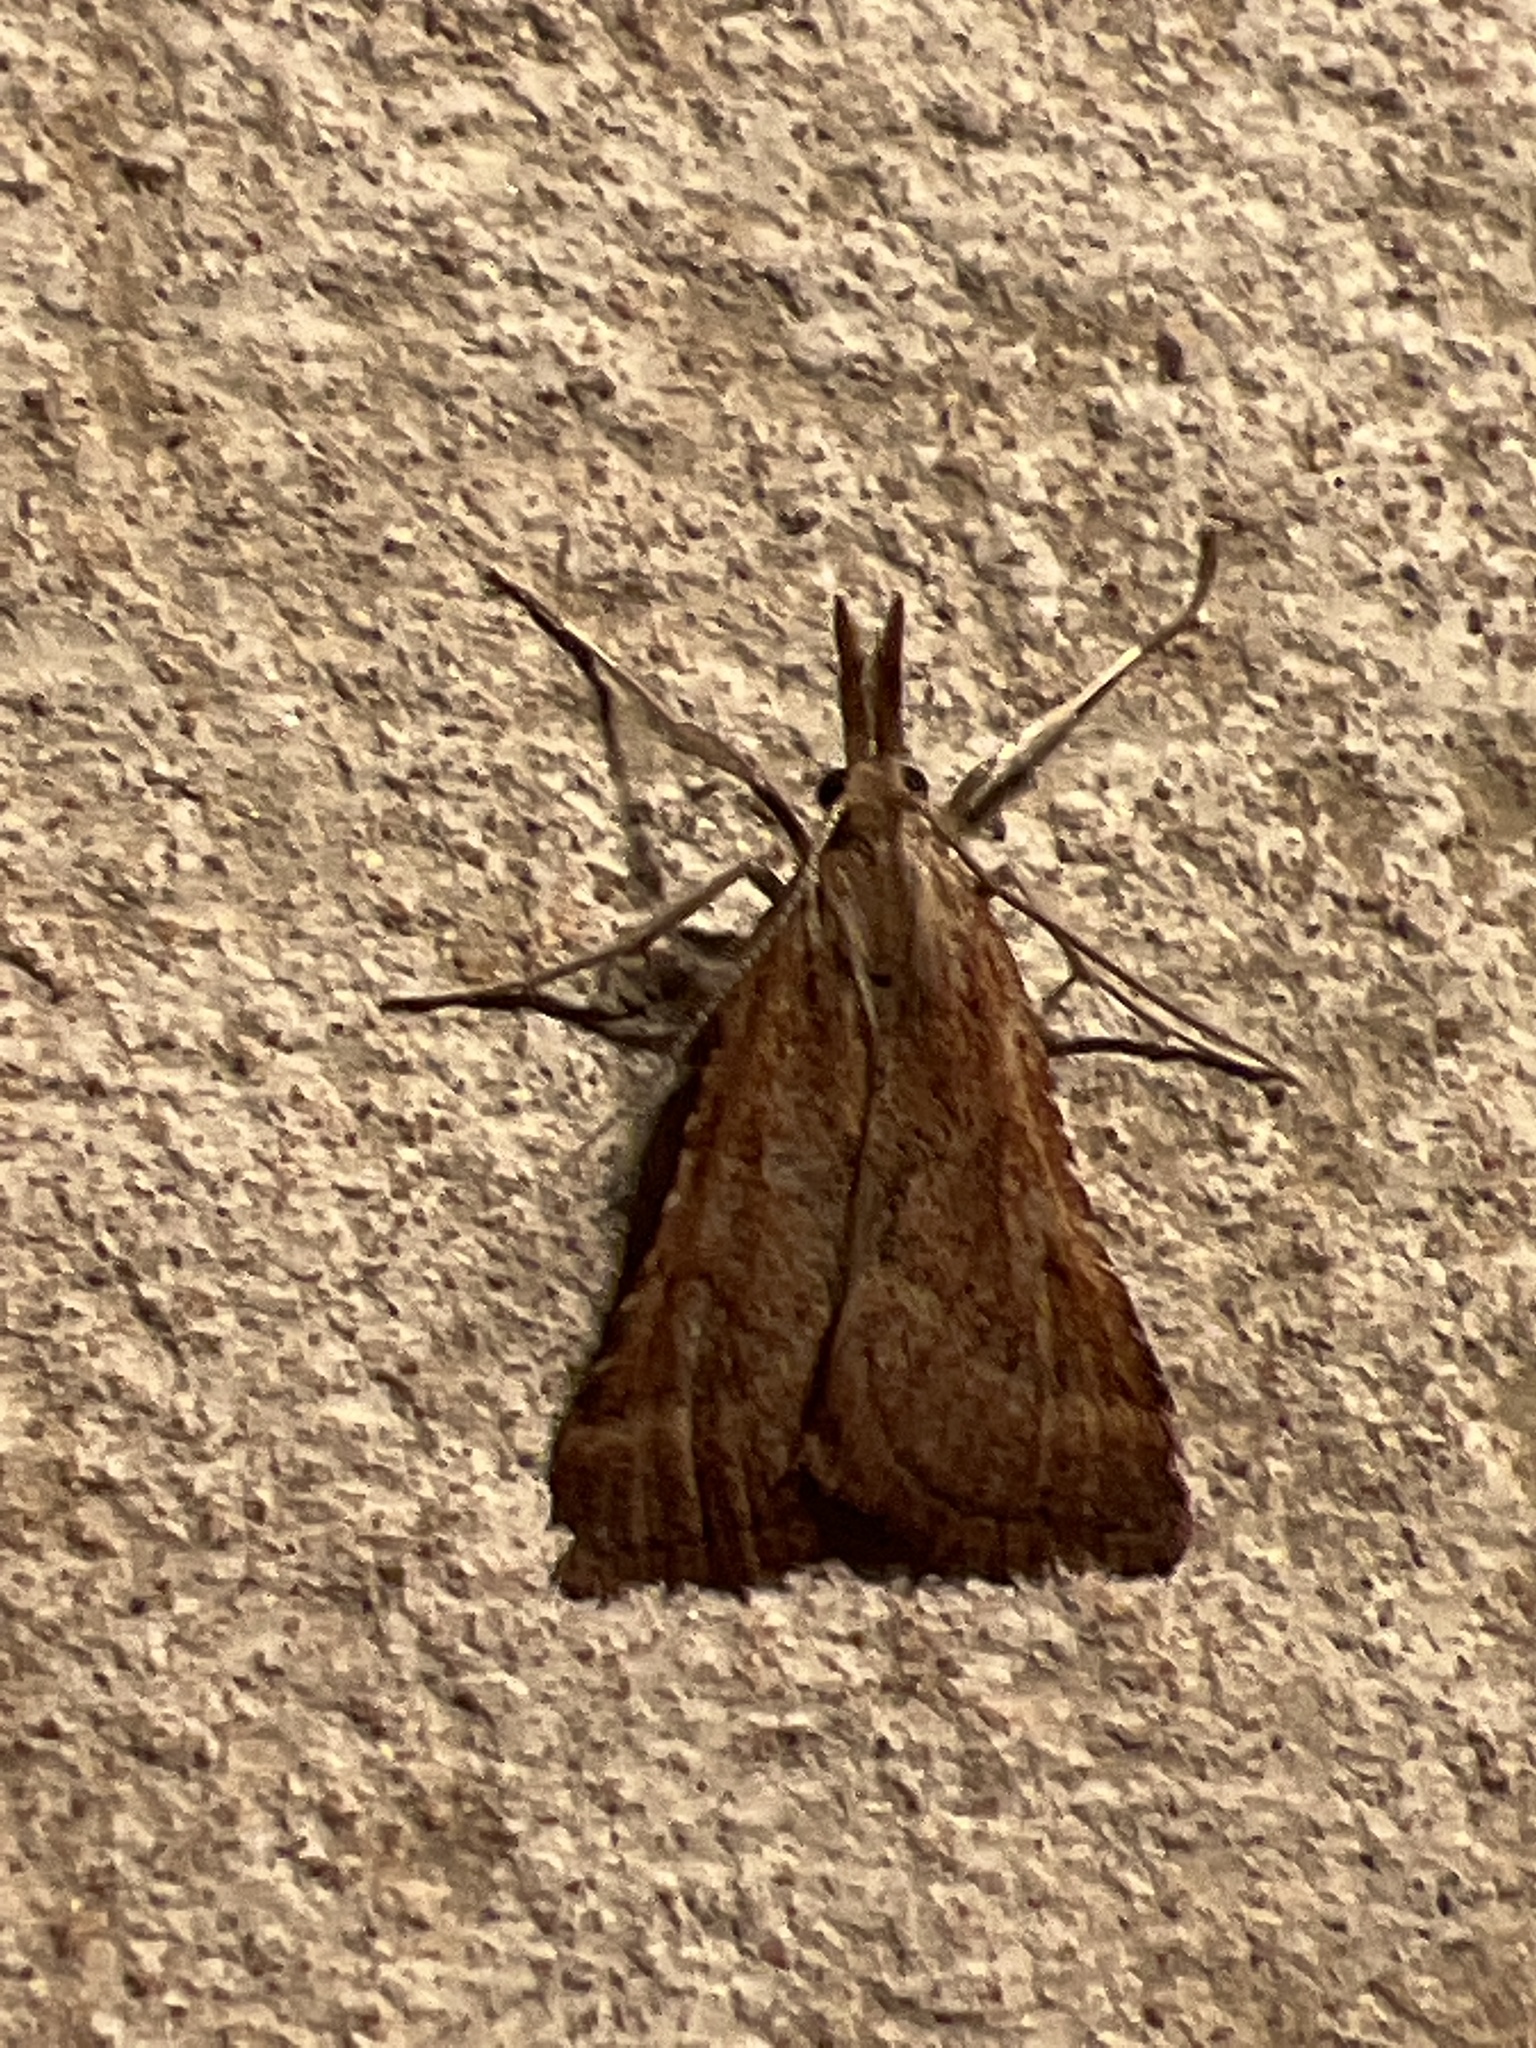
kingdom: Animalia
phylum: Arthropoda
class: Insecta
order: Lepidoptera
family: Pyralidae
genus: Synaphe
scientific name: Synaphe punctalis
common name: Long-legged tabby
